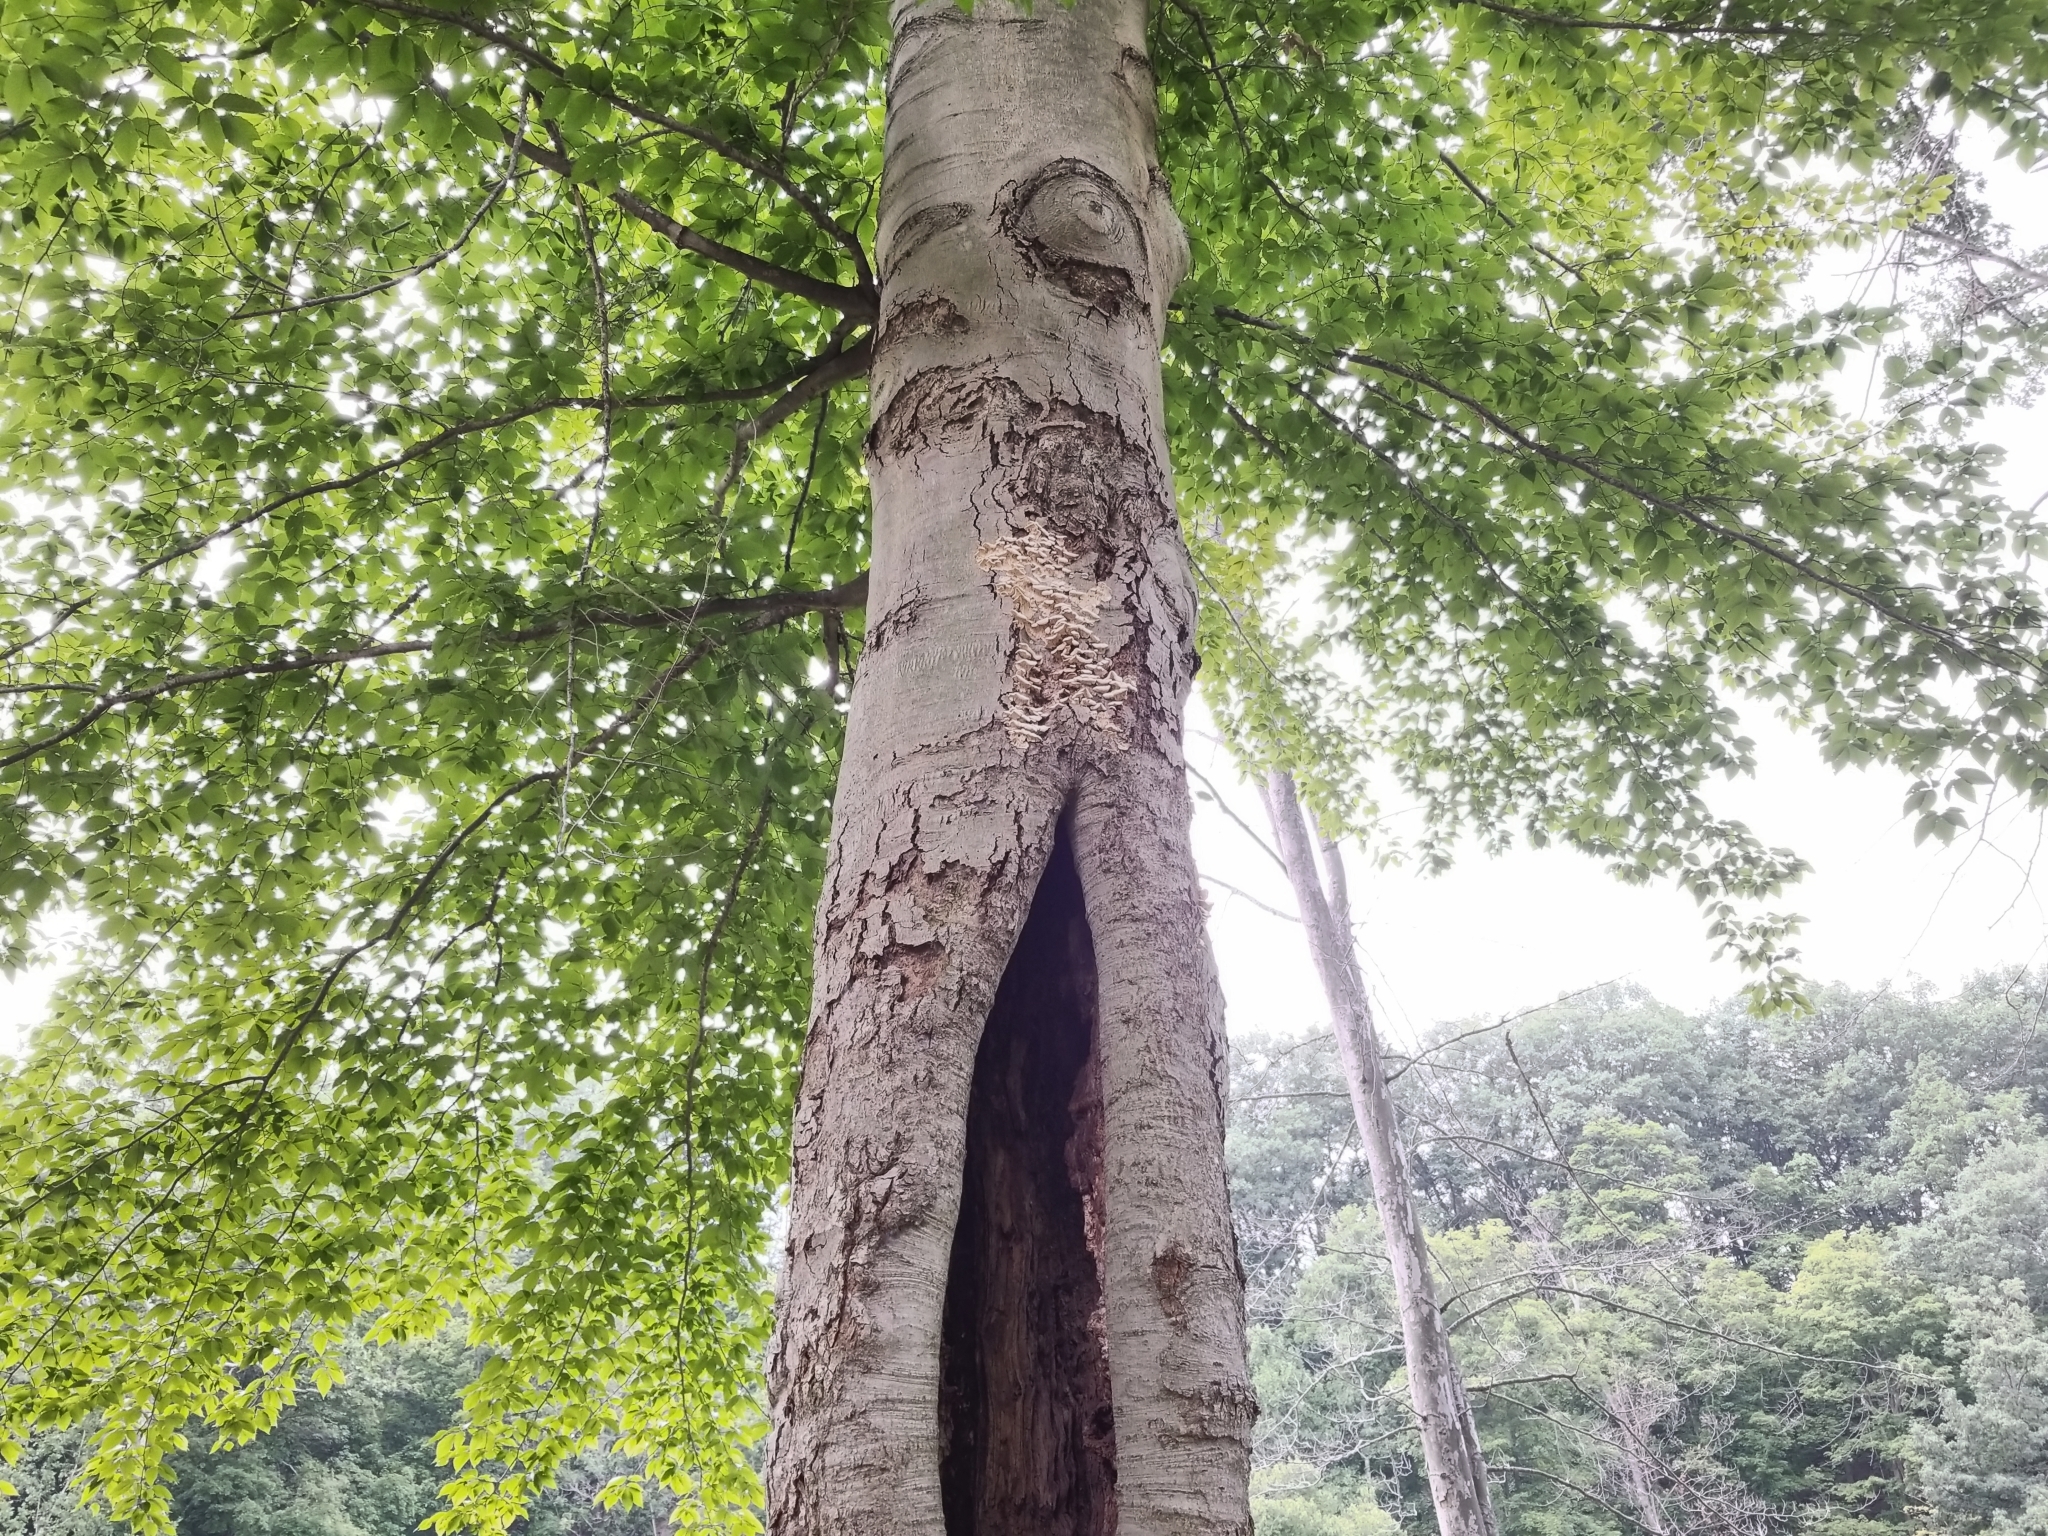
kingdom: Plantae
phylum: Tracheophyta
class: Magnoliopsida
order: Fagales
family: Fagaceae
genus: Fagus
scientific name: Fagus grandifolia
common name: American beech
